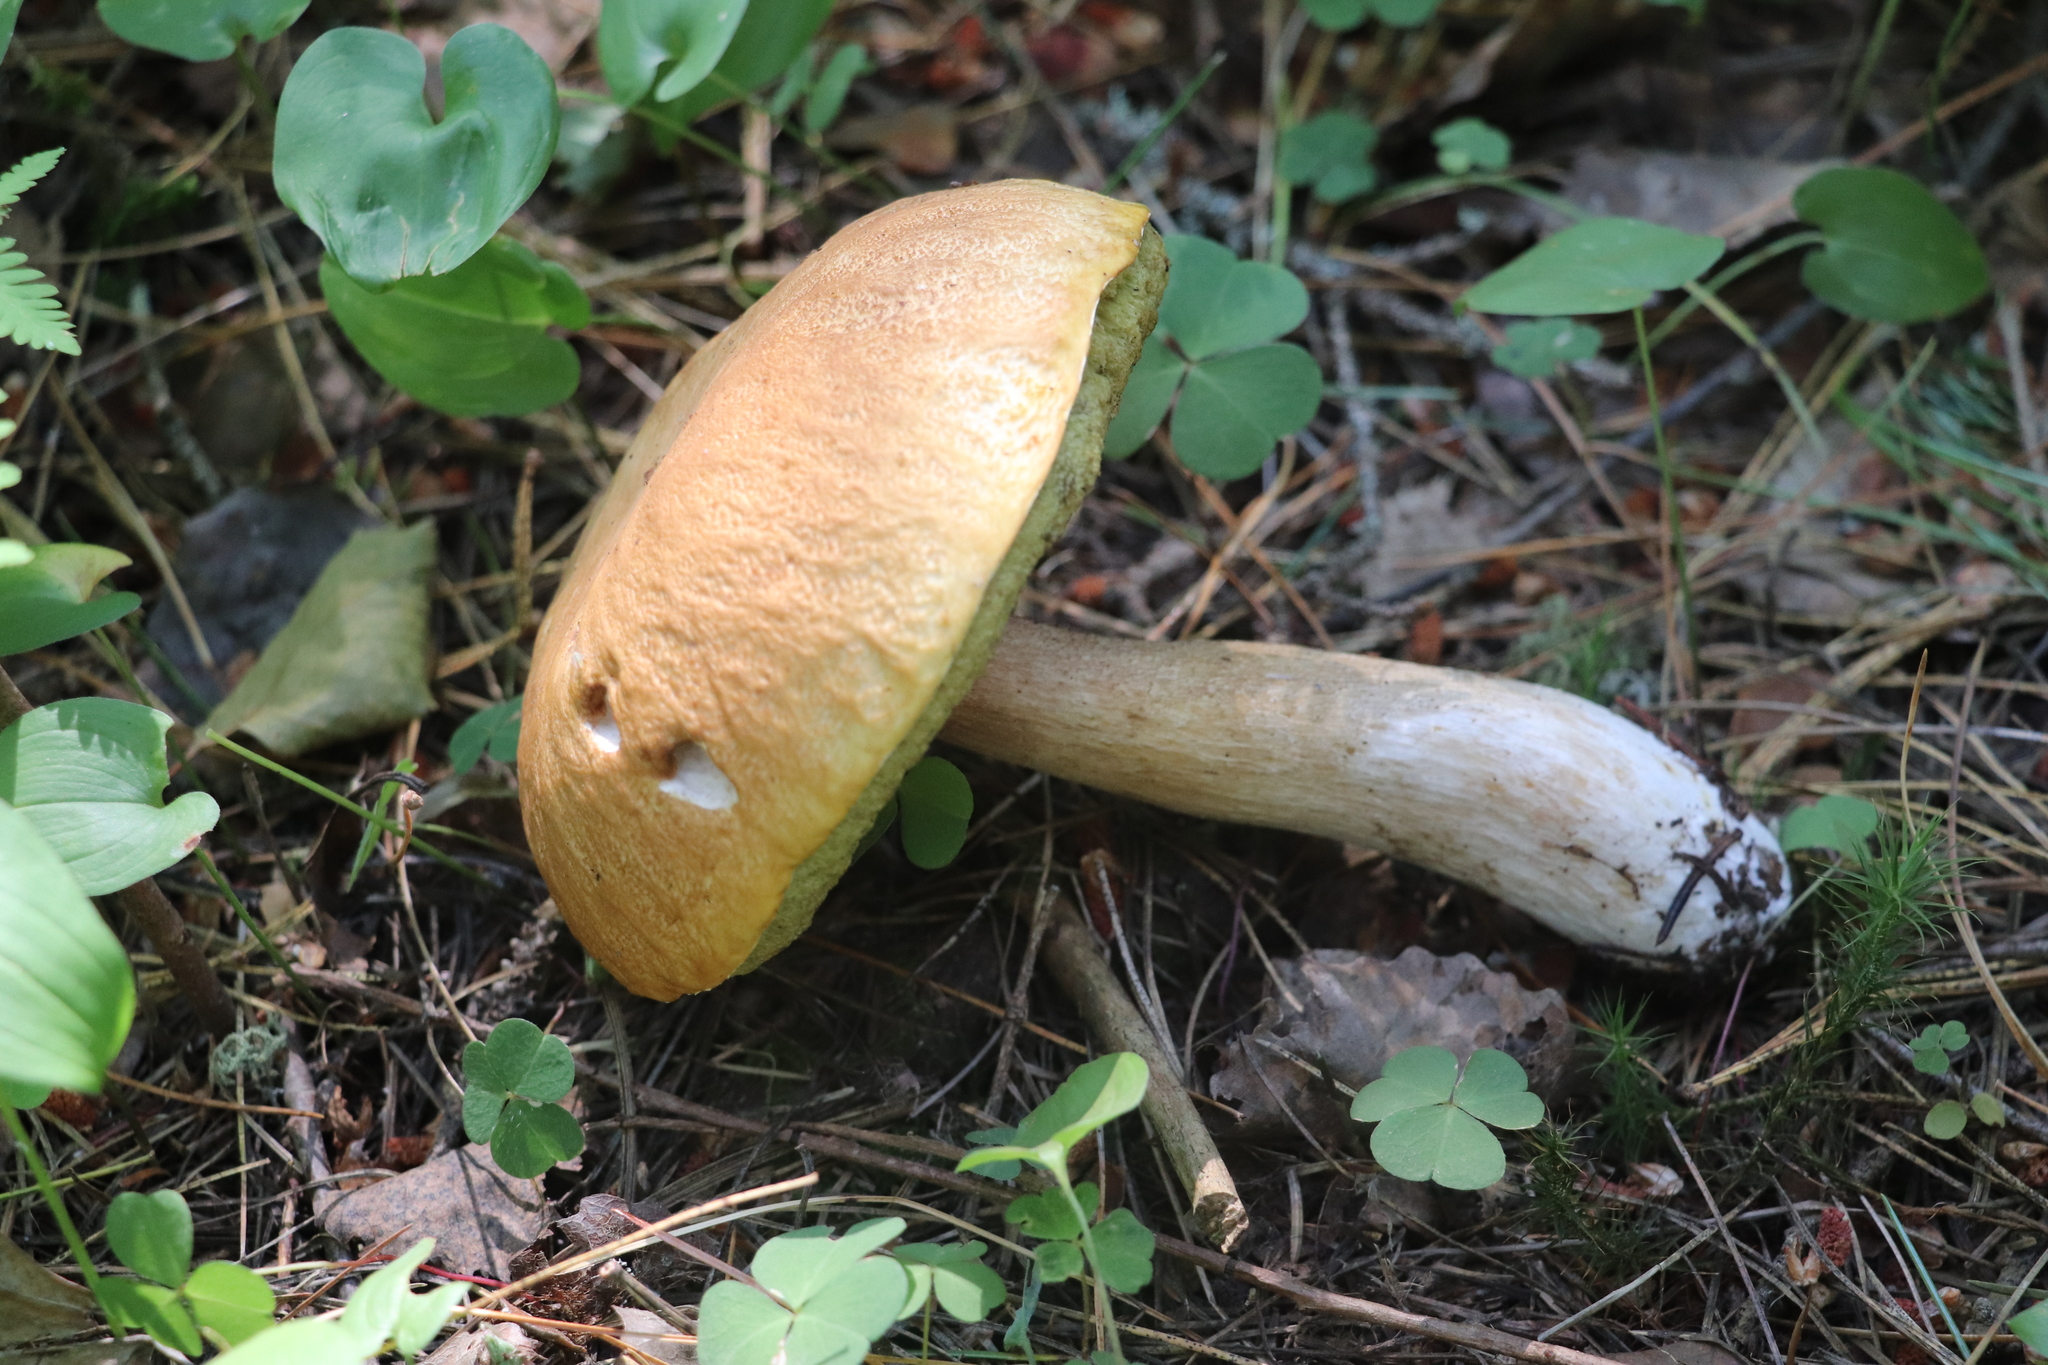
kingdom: Fungi
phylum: Basidiomycota
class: Agaricomycetes
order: Boletales
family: Boletaceae
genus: Boletus
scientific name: Boletus edulis
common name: Cep
